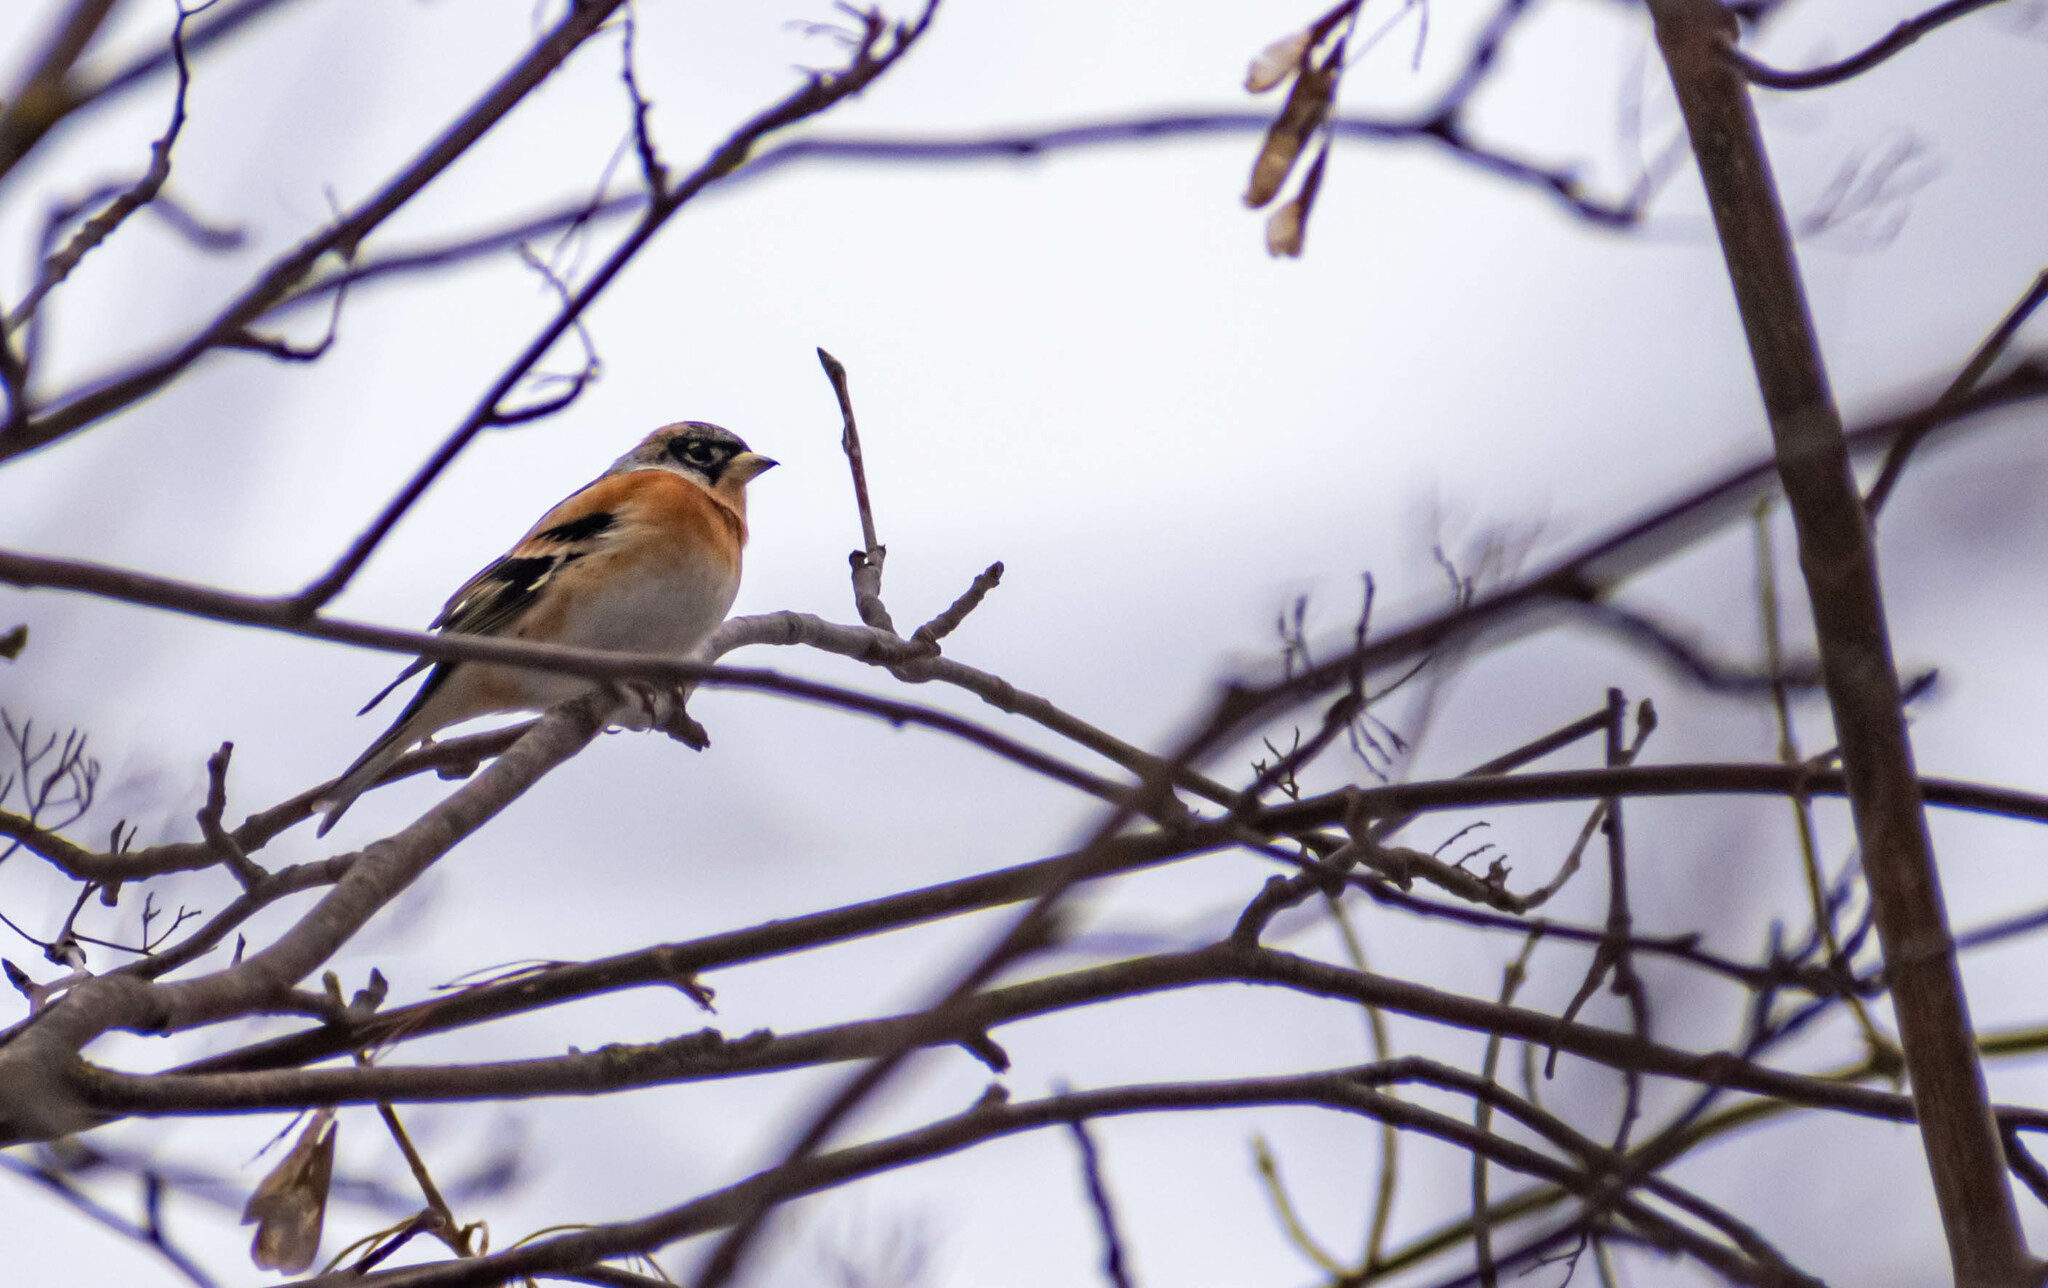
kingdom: Animalia
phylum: Chordata
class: Aves
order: Passeriformes
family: Fringillidae
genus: Fringilla
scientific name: Fringilla montifringilla
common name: Brambling
